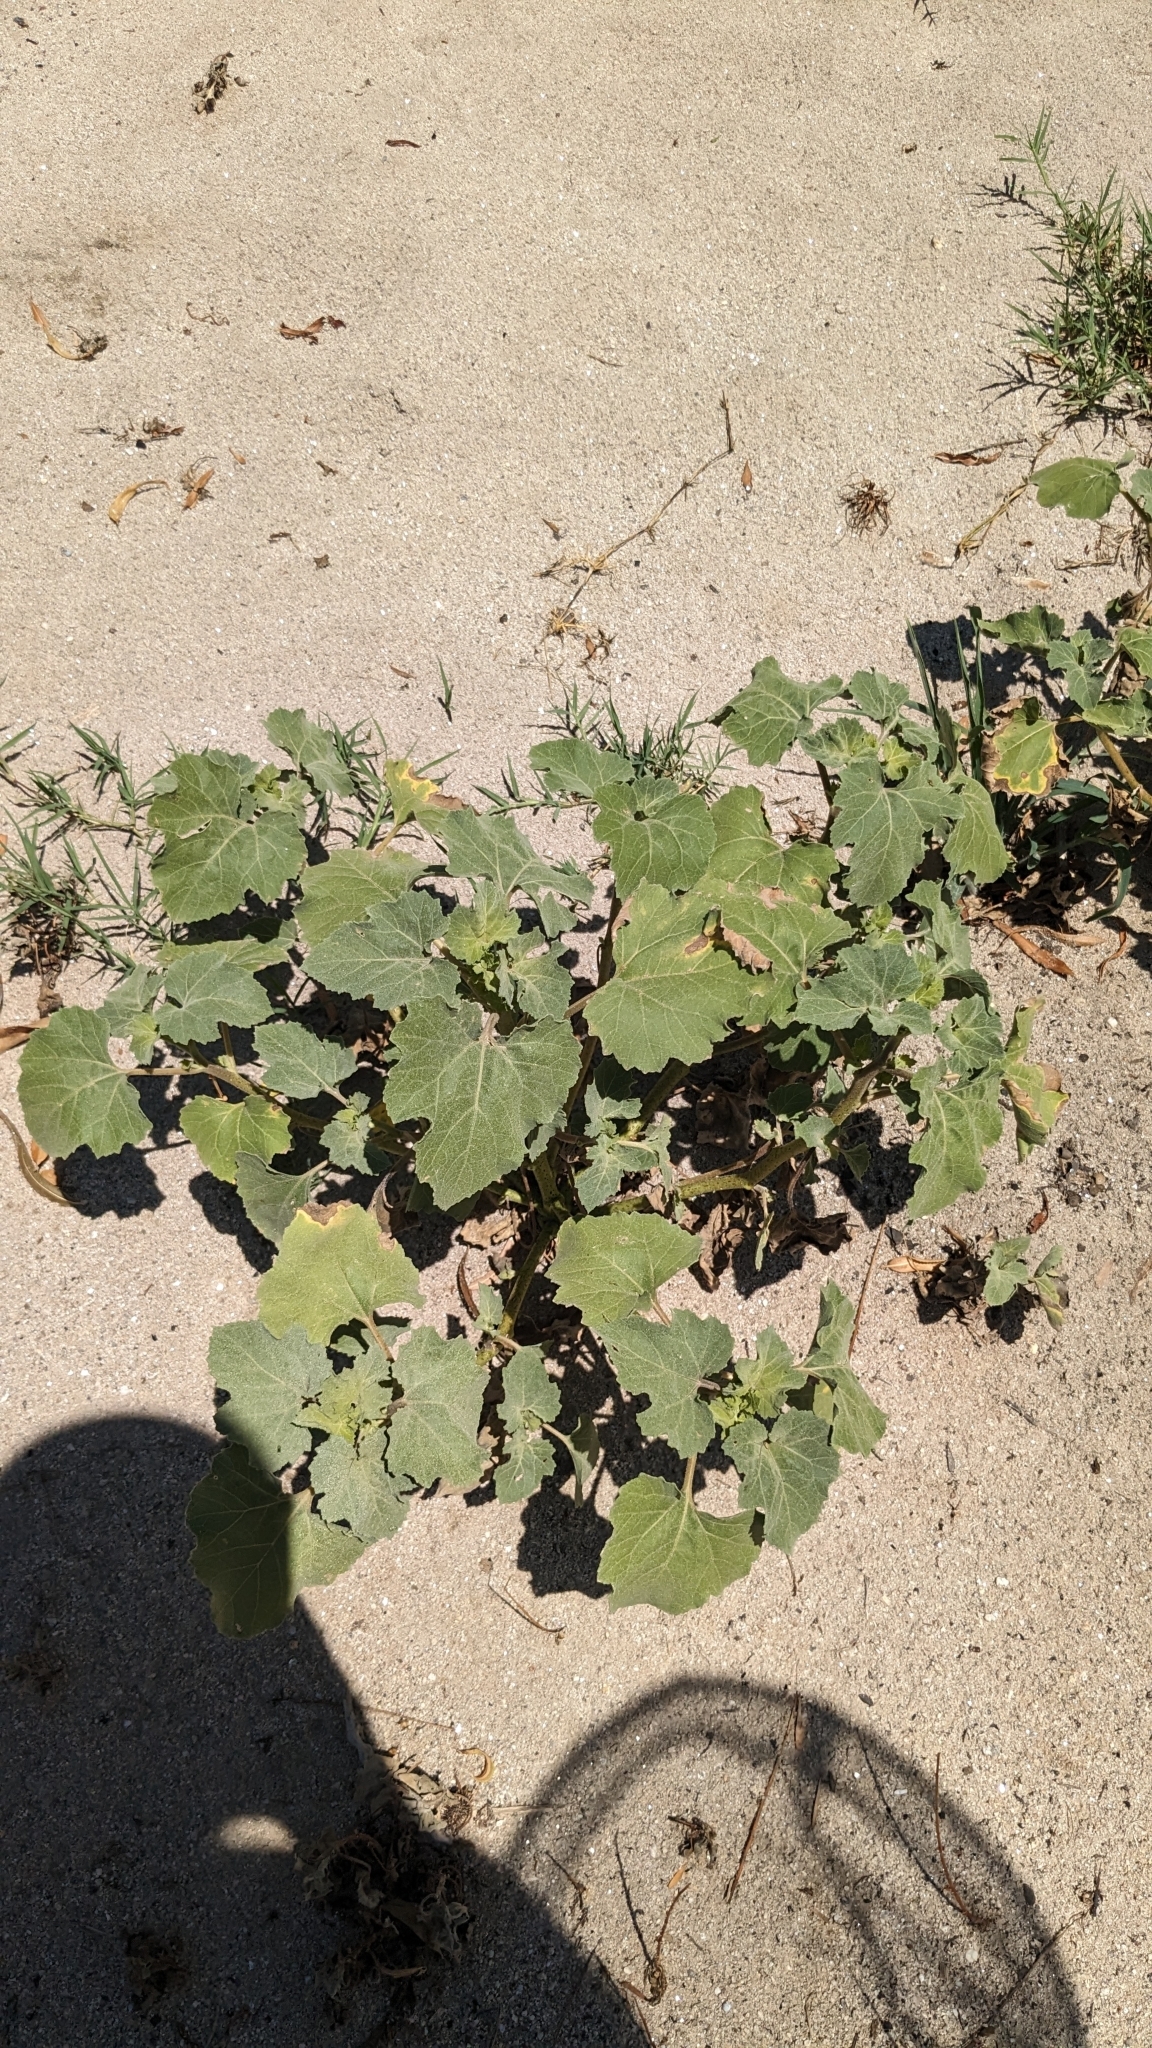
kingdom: Plantae
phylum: Tracheophyta
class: Magnoliopsida
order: Asterales
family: Asteraceae
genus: Xanthium
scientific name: Xanthium strumarium
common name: Rough cocklebur
